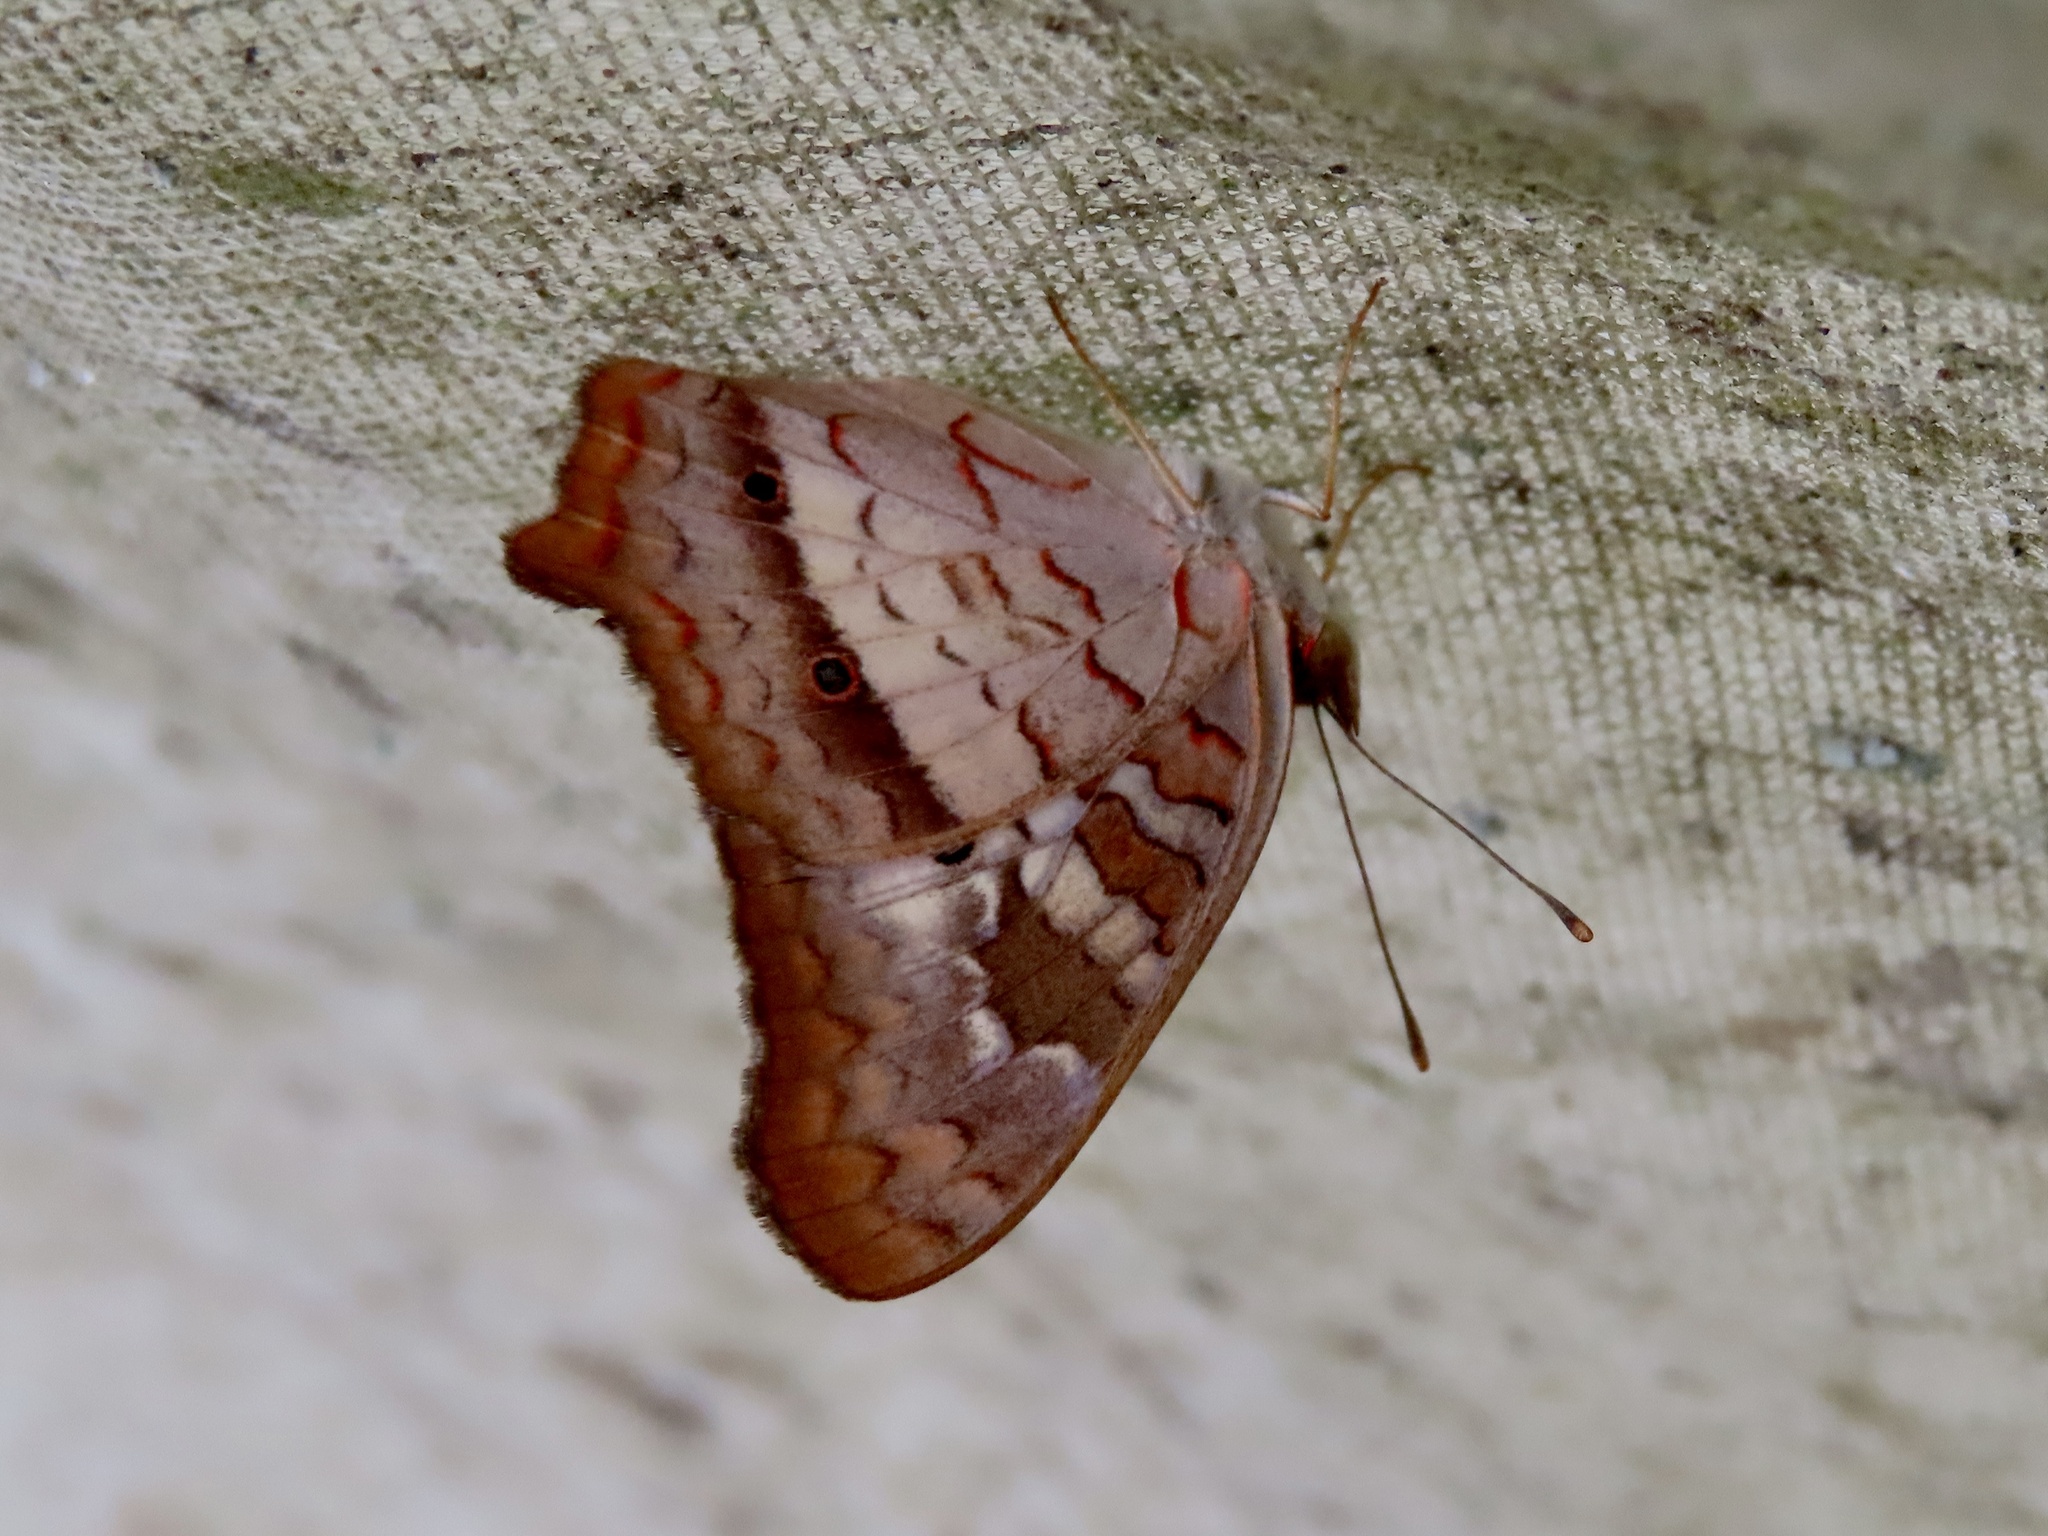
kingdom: Animalia
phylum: Arthropoda
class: Insecta
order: Lepidoptera
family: Nymphalidae
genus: Anartia
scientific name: Anartia jatrophae
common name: White peacock
